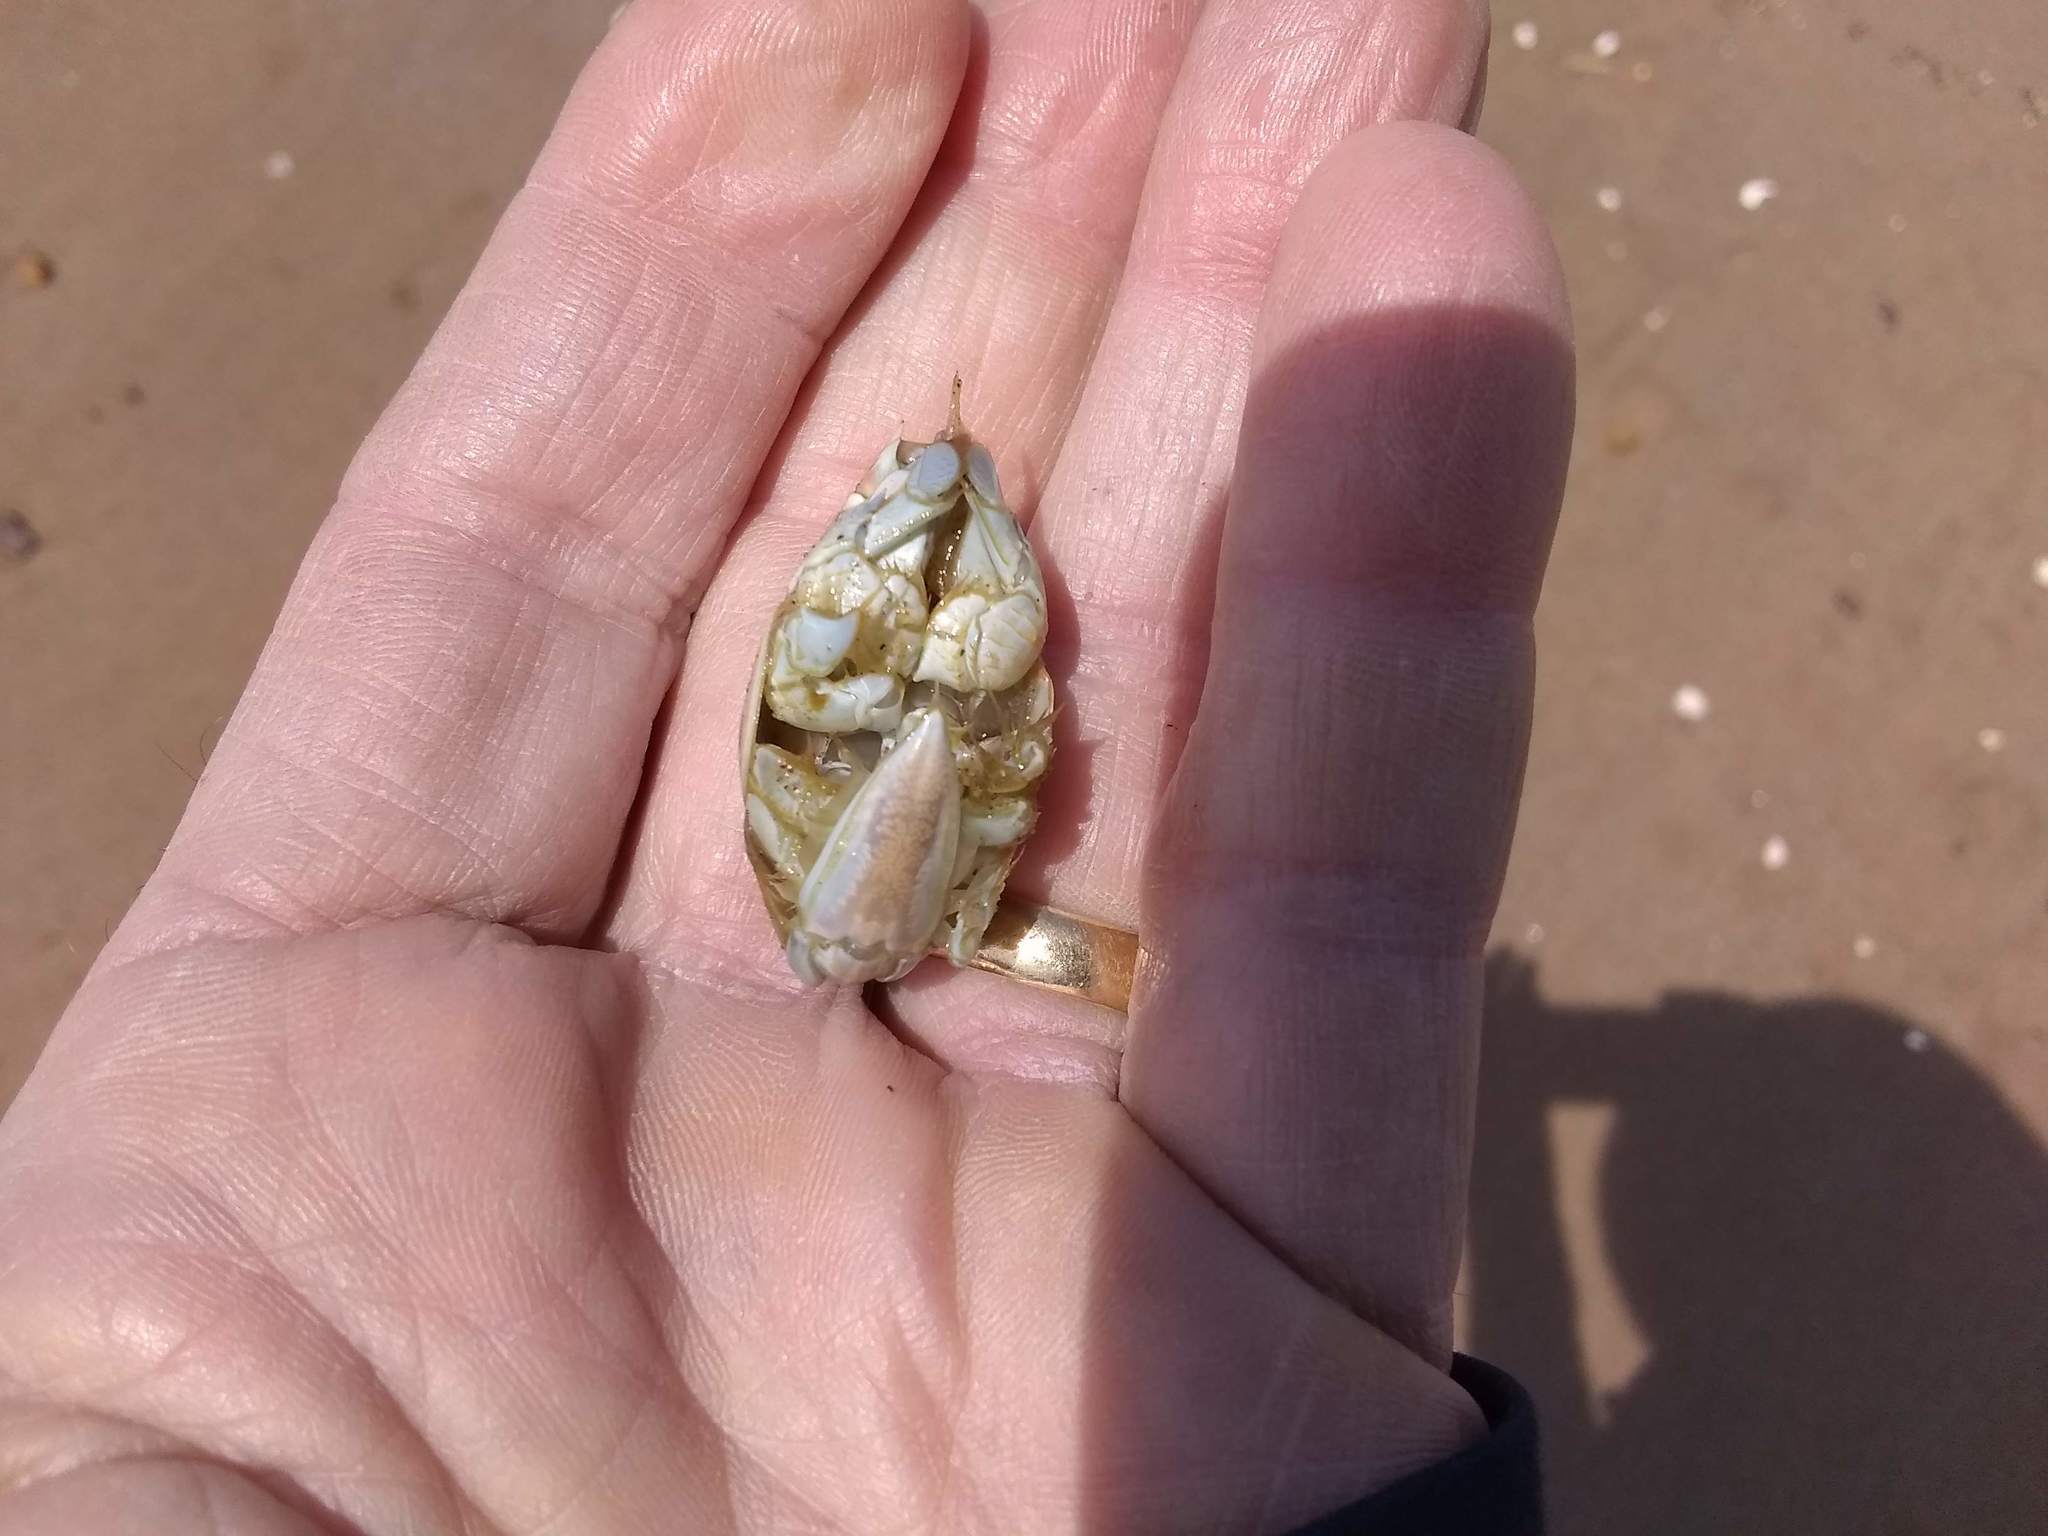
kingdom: Animalia
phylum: Arthropoda
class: Malacostraca
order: Decapoda
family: Hippidae
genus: Emerita
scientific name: Emerita talpoida
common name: Atlantic sand crab
